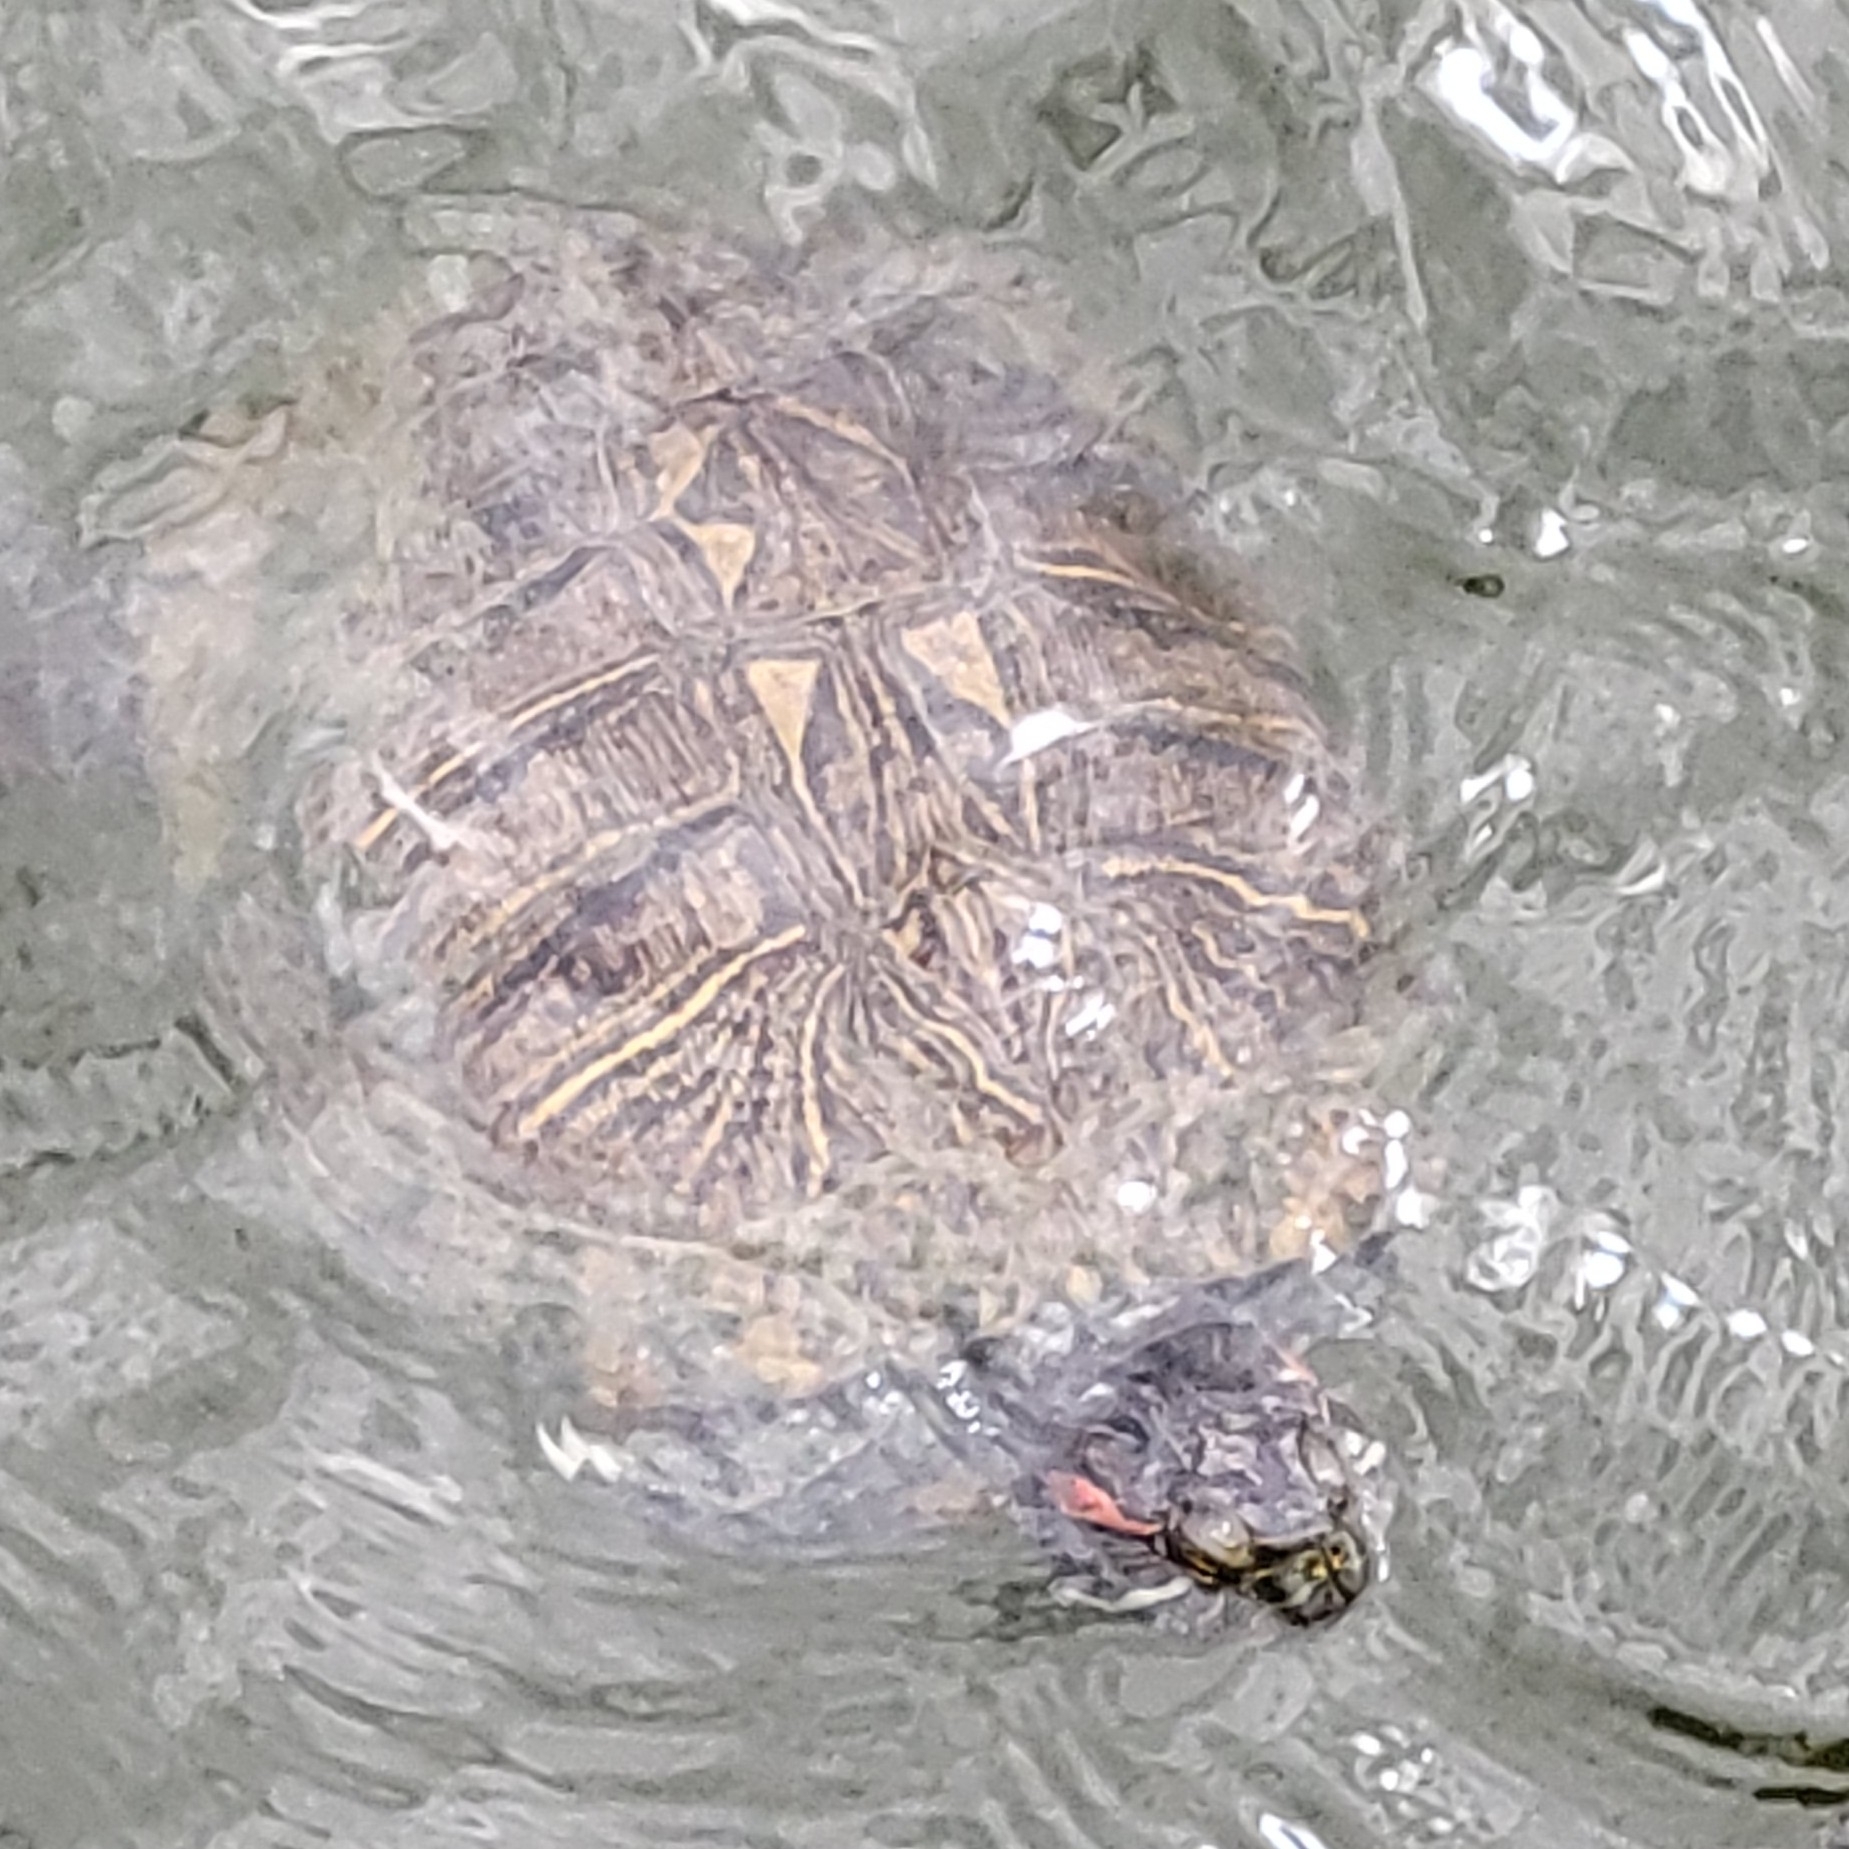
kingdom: Animalia
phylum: Chordata
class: Testudines
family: Emydidae
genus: Trachemys
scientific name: Trachemys scripta
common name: Slider
